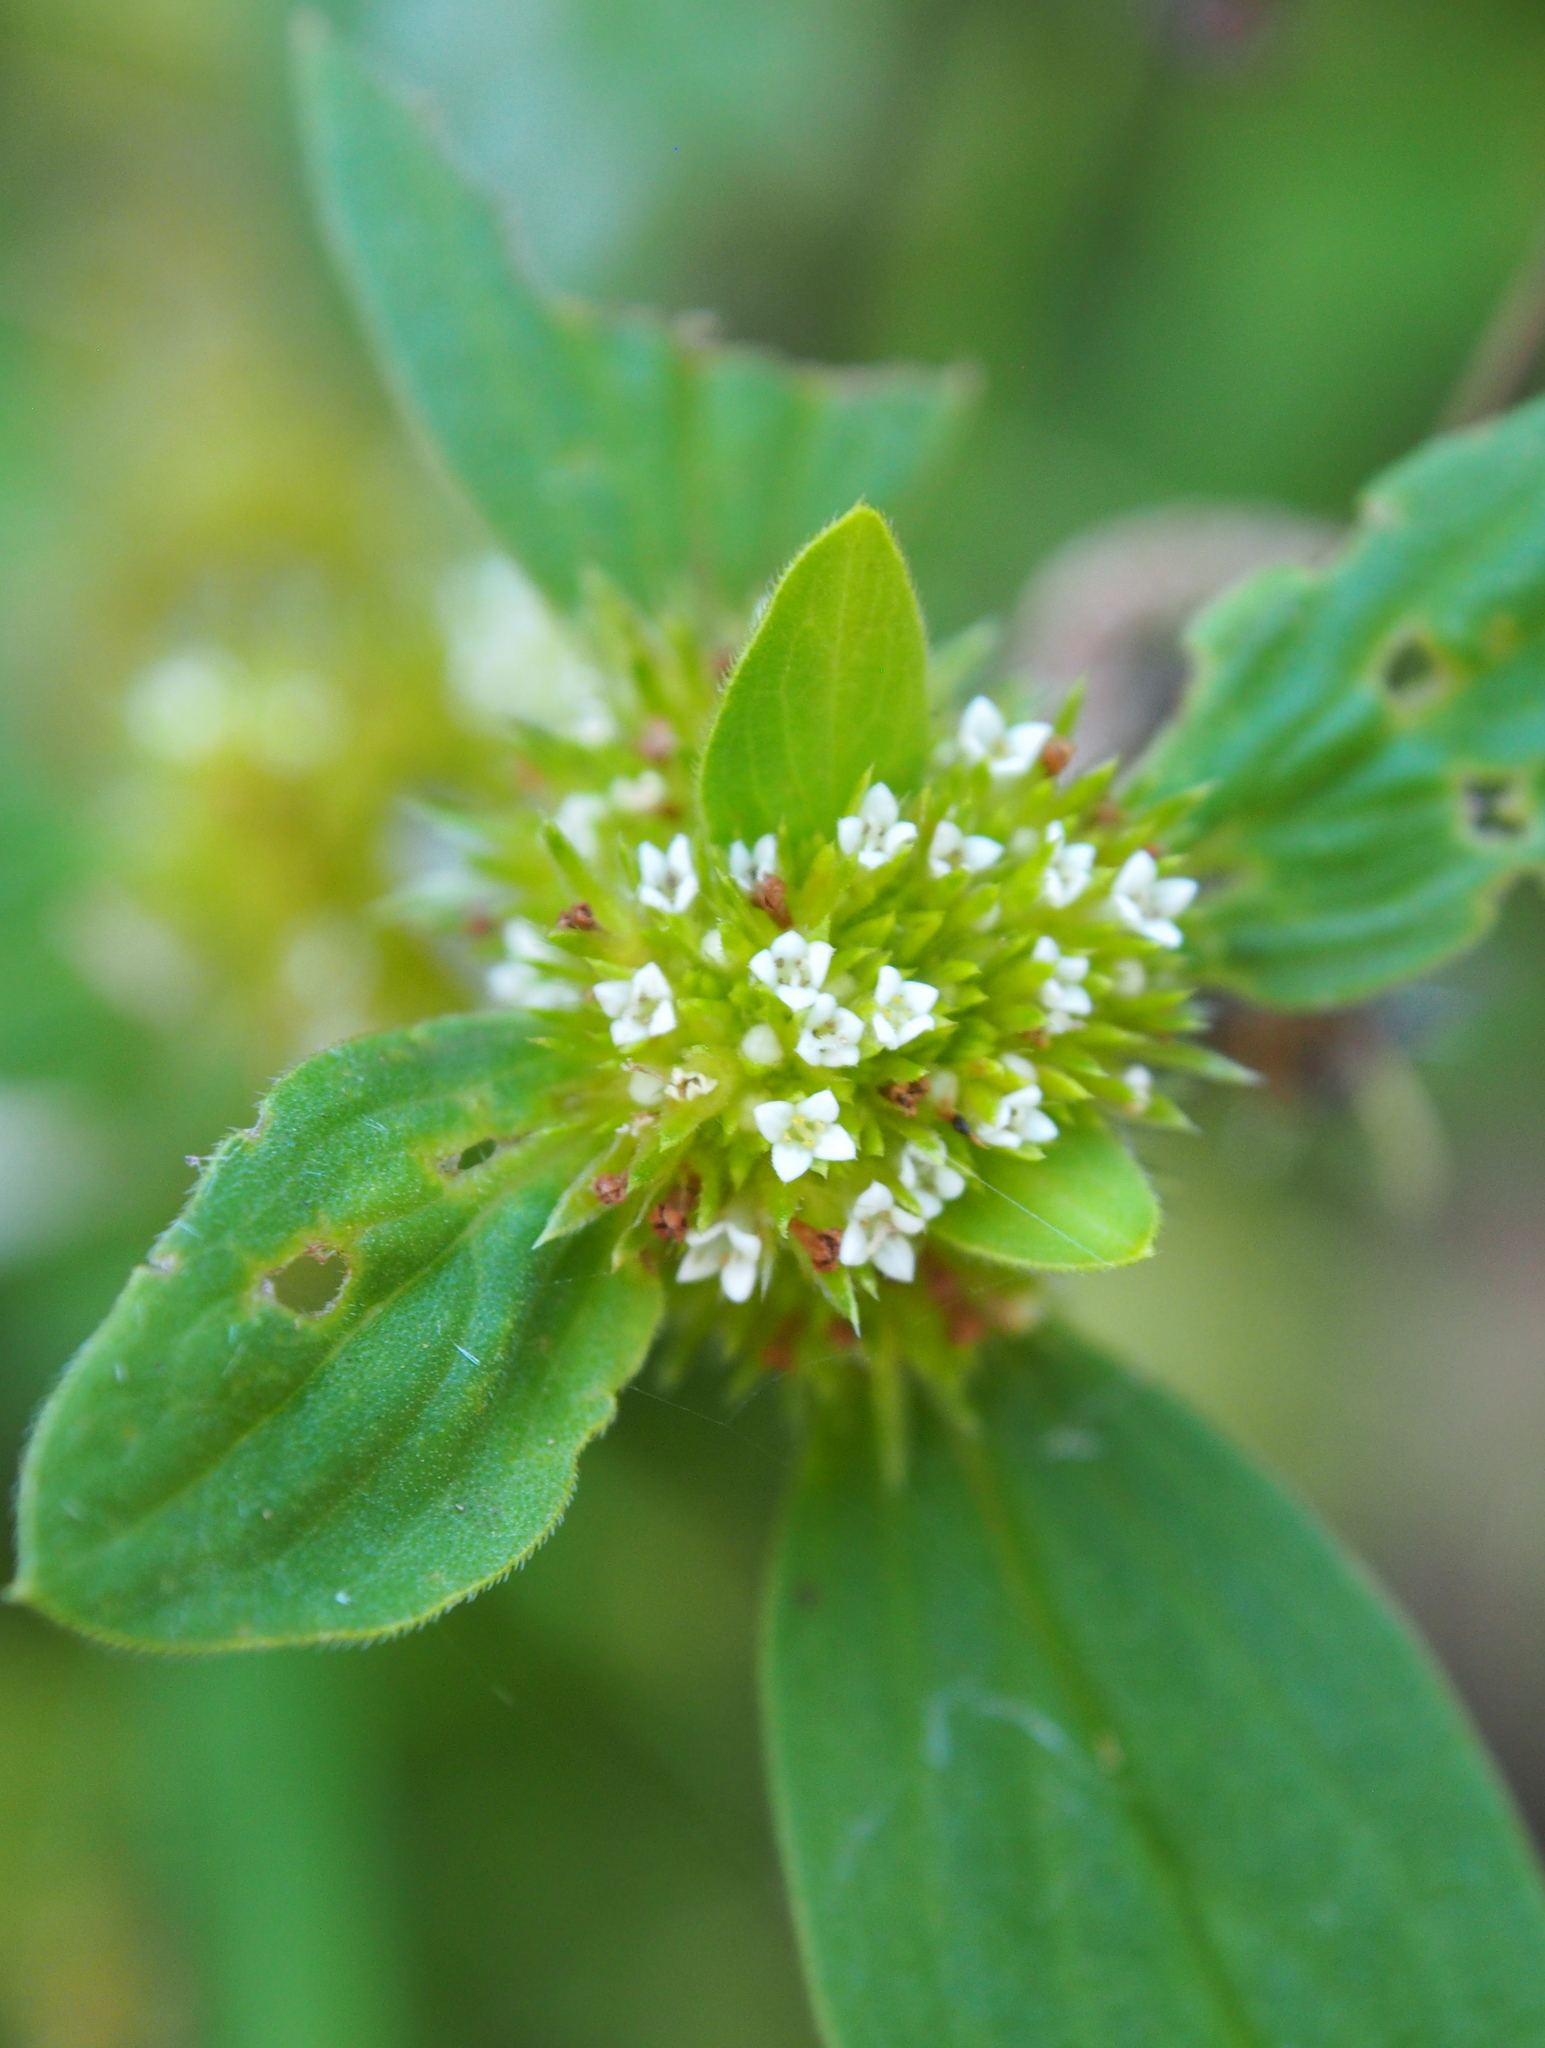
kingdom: Plantae
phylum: Tracheophyta
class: Magnoliopsida
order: Gentianales
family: Rubiaceae
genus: Mitracarpus
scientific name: Mitracarpus hirtus
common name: Tropical girdlepod
